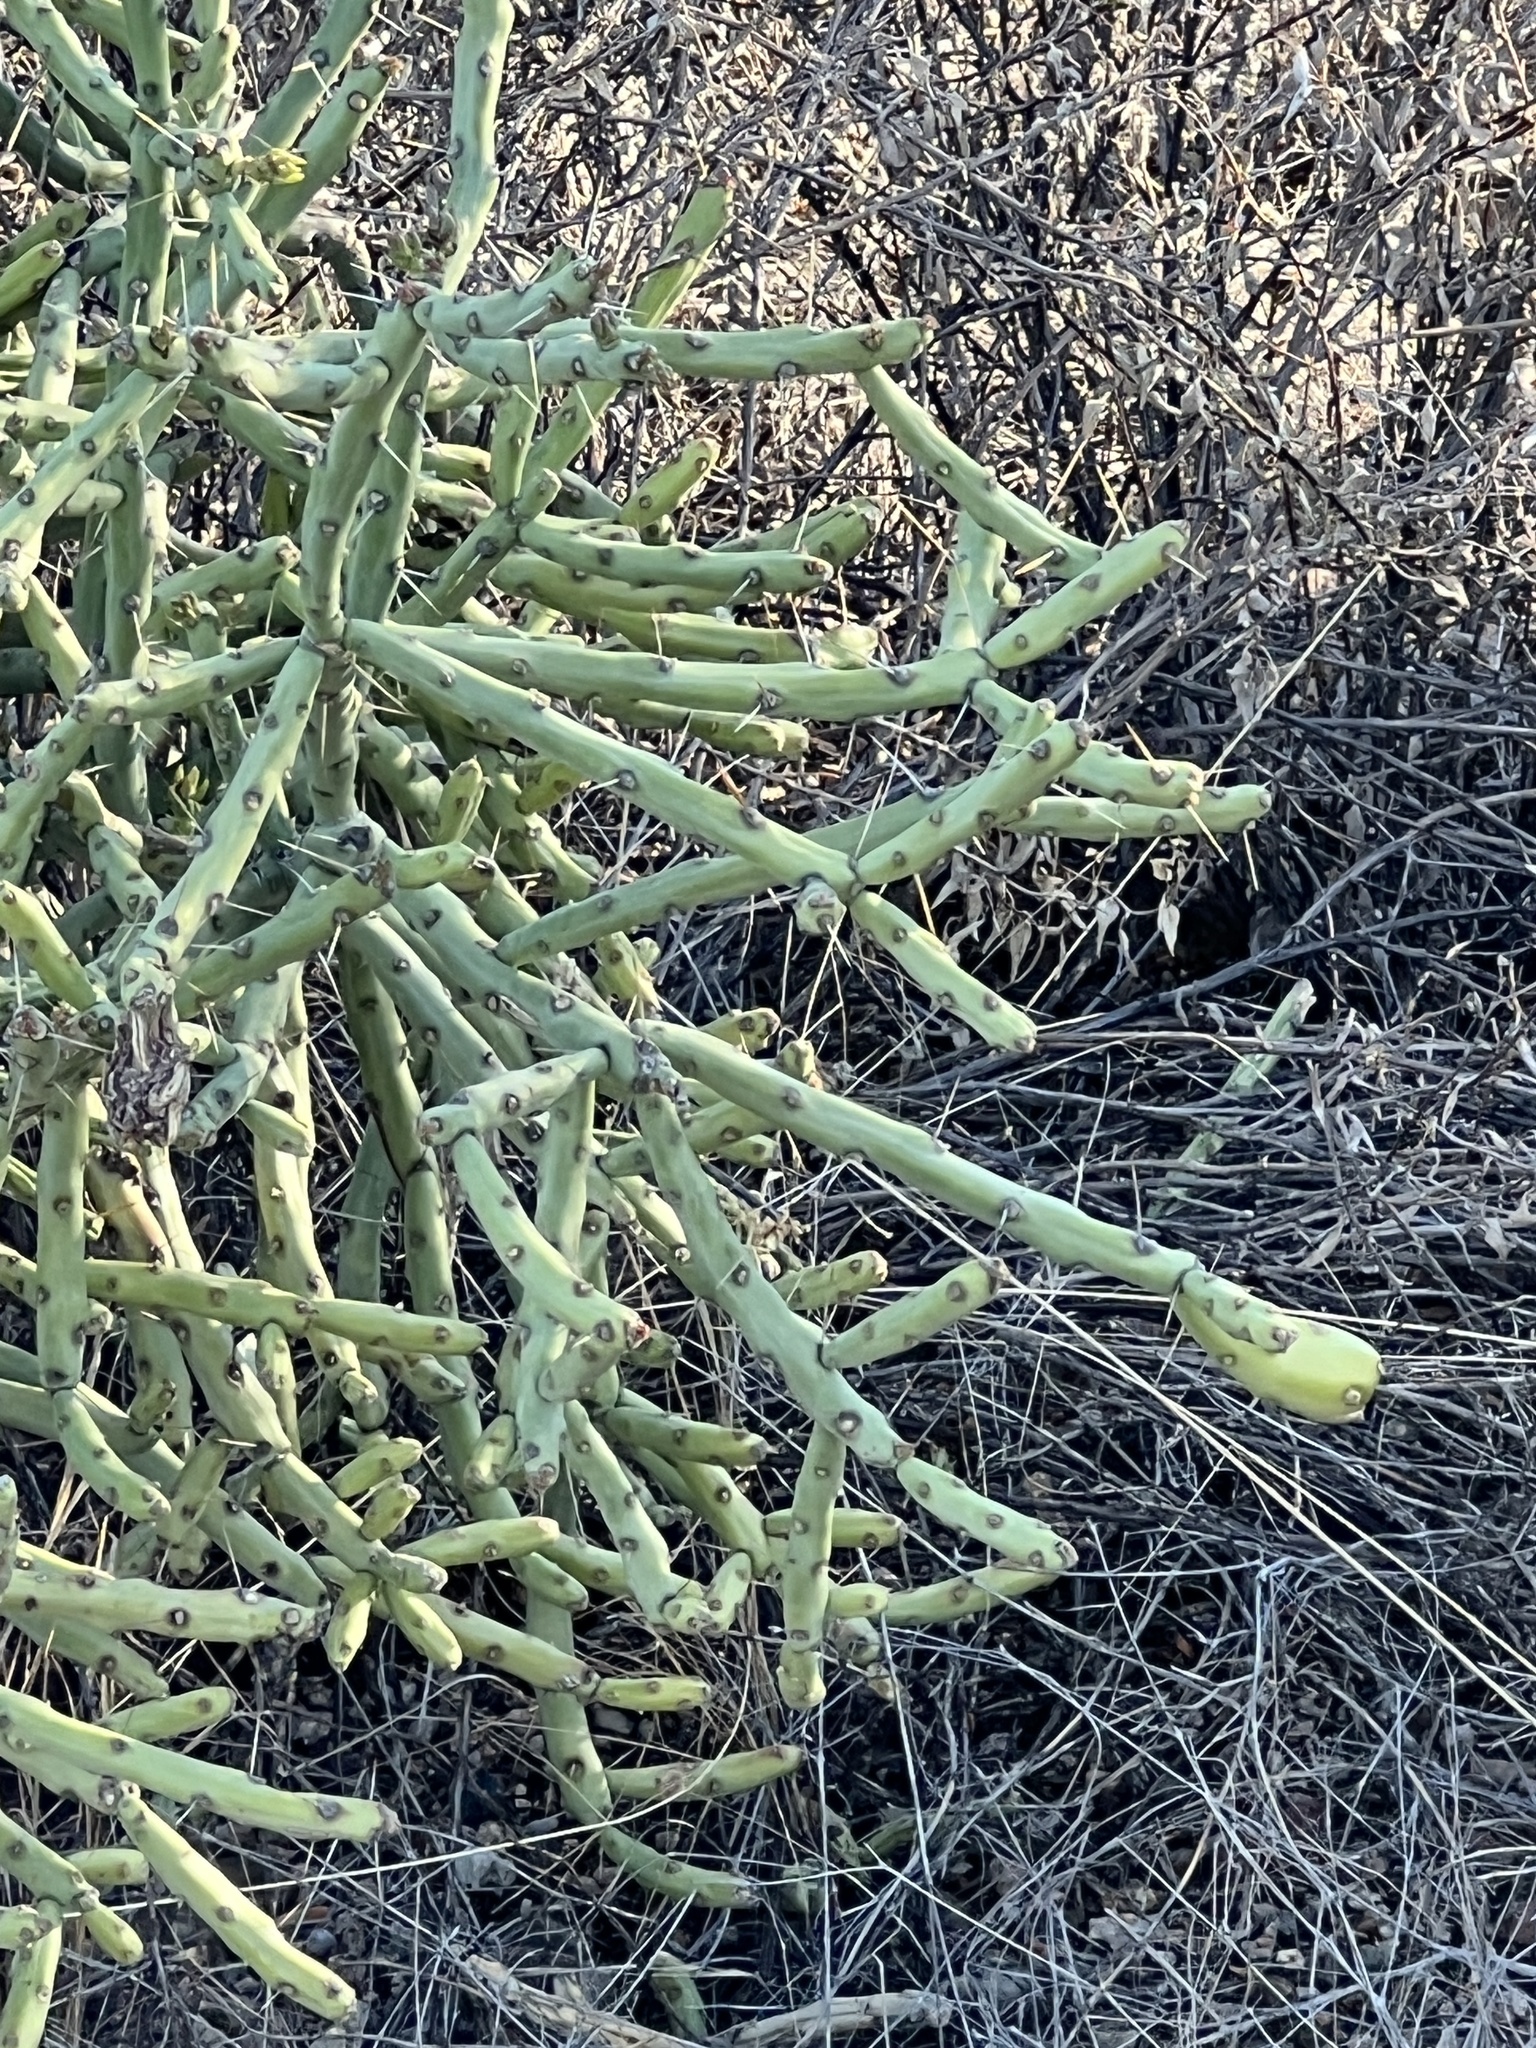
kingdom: Plantae
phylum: Tracheophyta
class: Magnoliopsida
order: Caryophyllales
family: Cactaceae
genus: Cylindropuntia
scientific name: Cylindropuntia arbuscula
